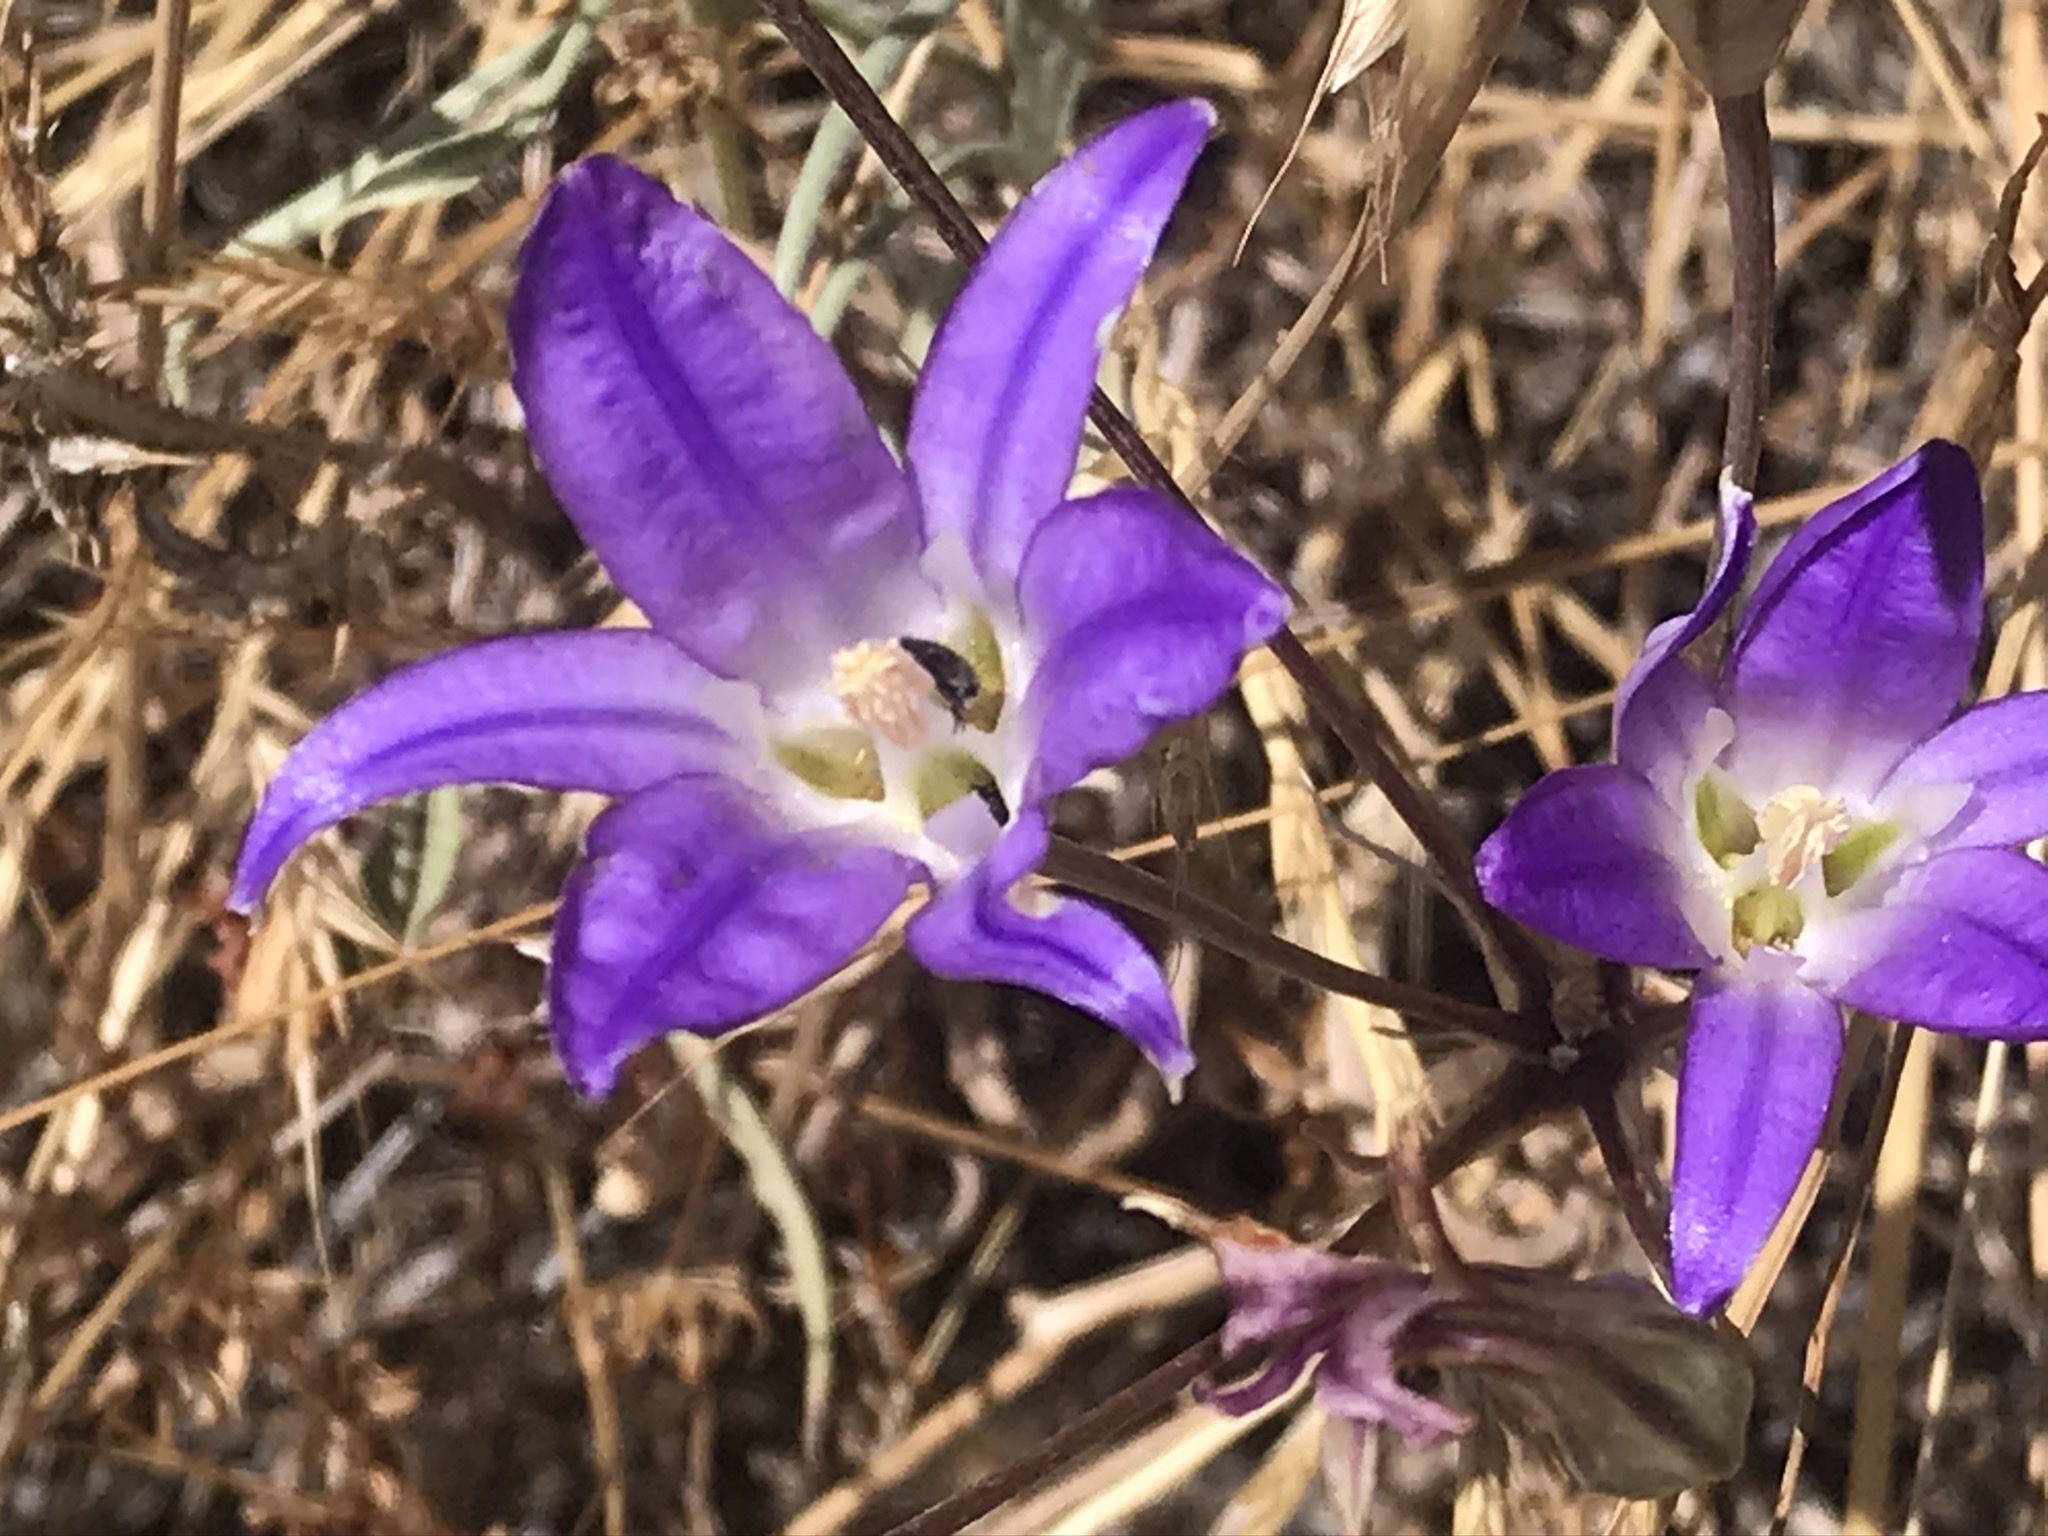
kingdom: Plantae
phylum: Tracheophyta
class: Liliopsida
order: Asparagales
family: Asparagaceae
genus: Brodiaea
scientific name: Brodiaea elegans
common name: Elegant cluster-lily
